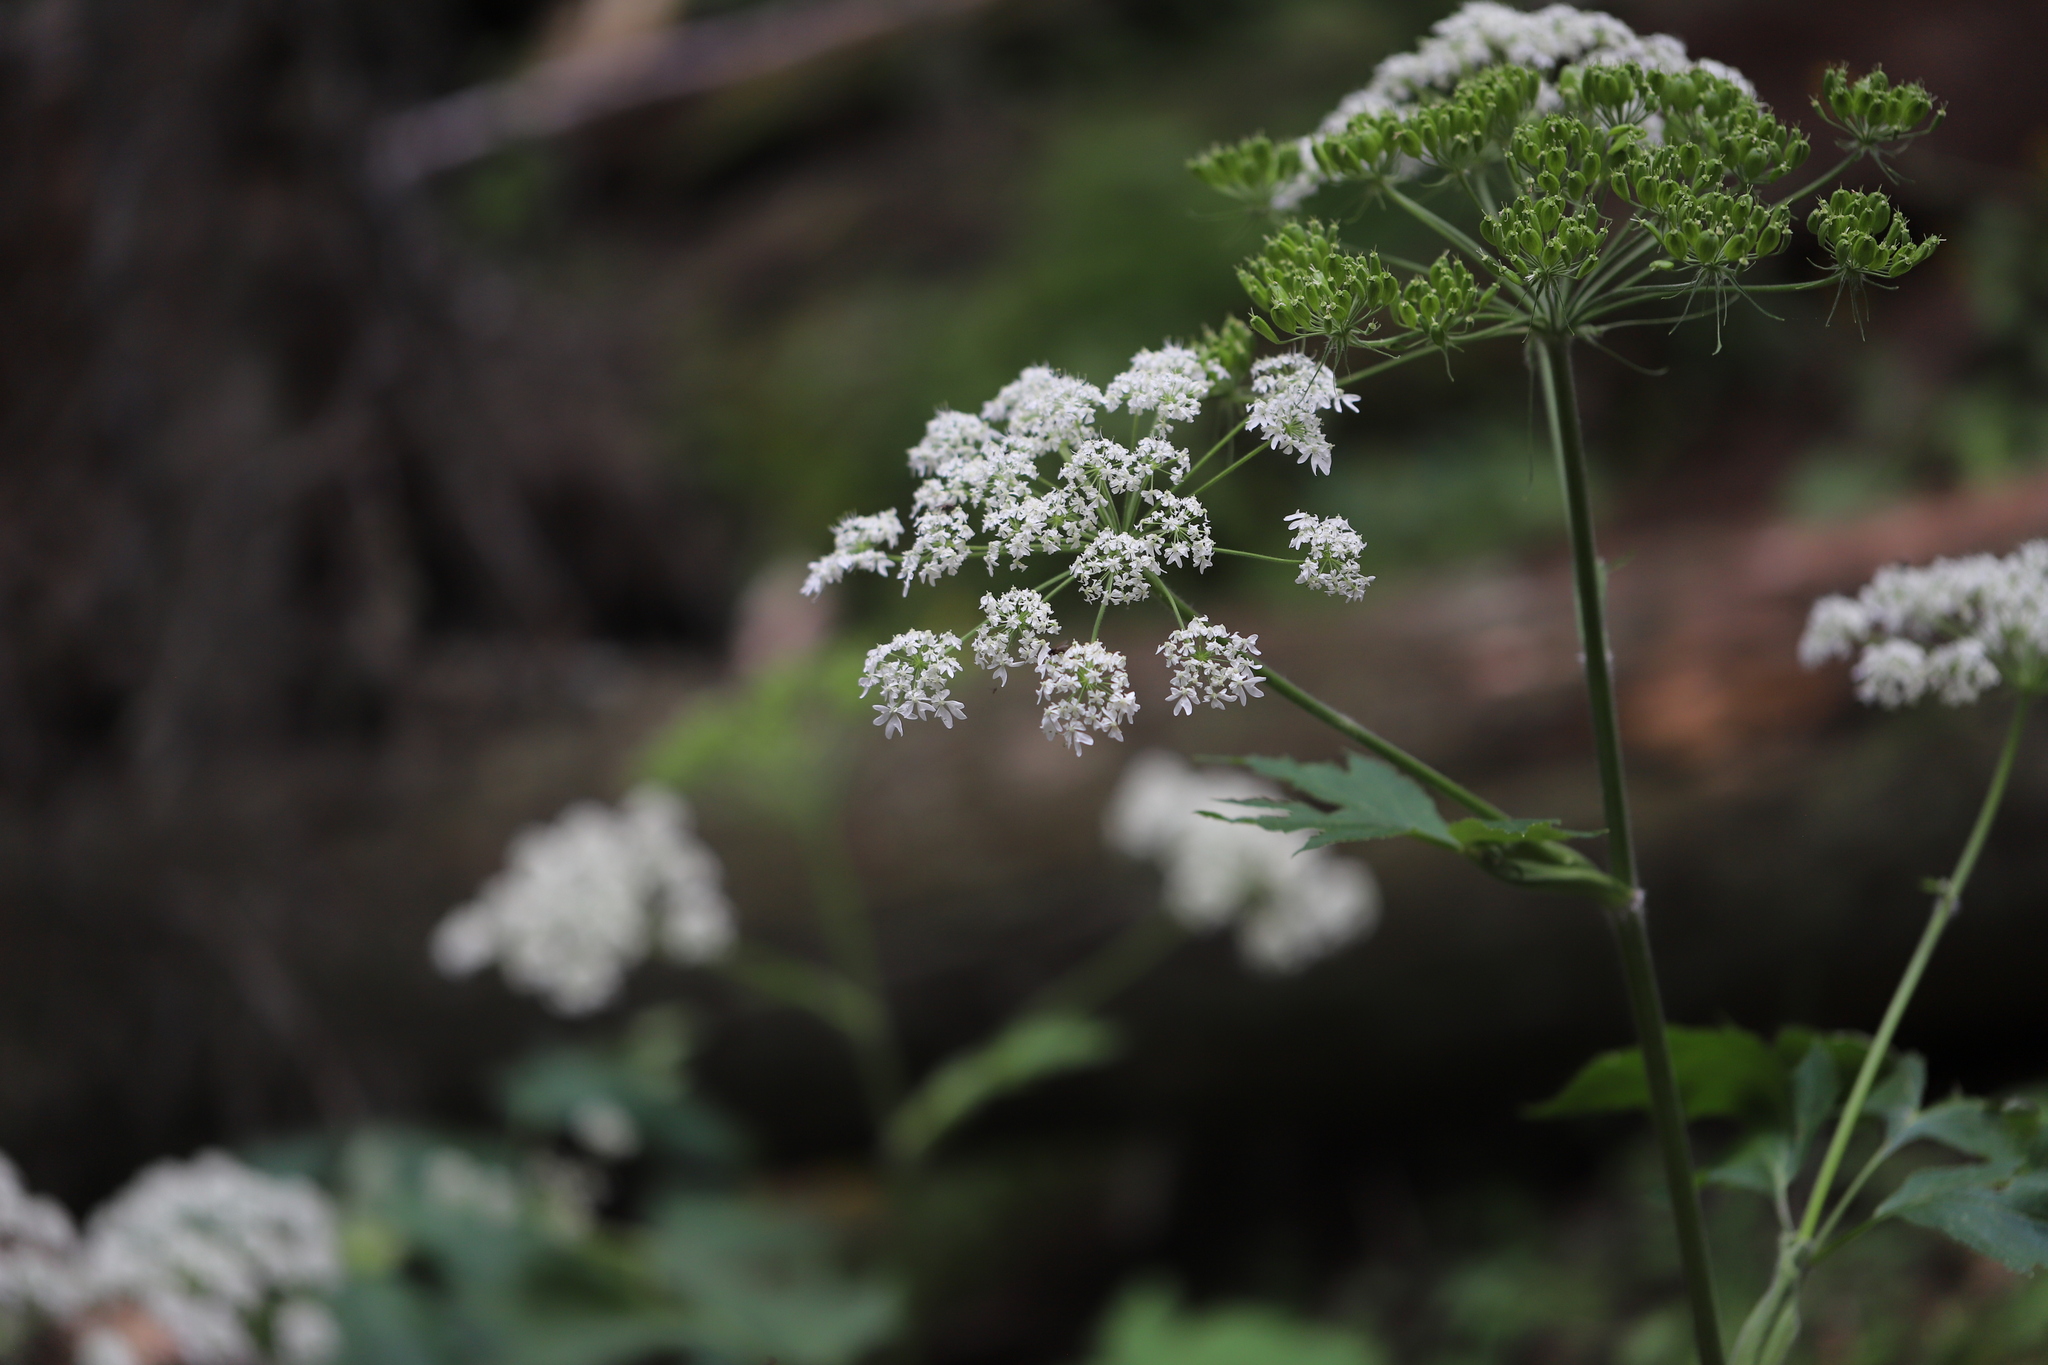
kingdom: Plantae
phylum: Tracheophyta
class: Magnoliopsida
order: Apiales
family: Apiaceae
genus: Heracleum
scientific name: Heracleum maximum
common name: American cow parsnip
